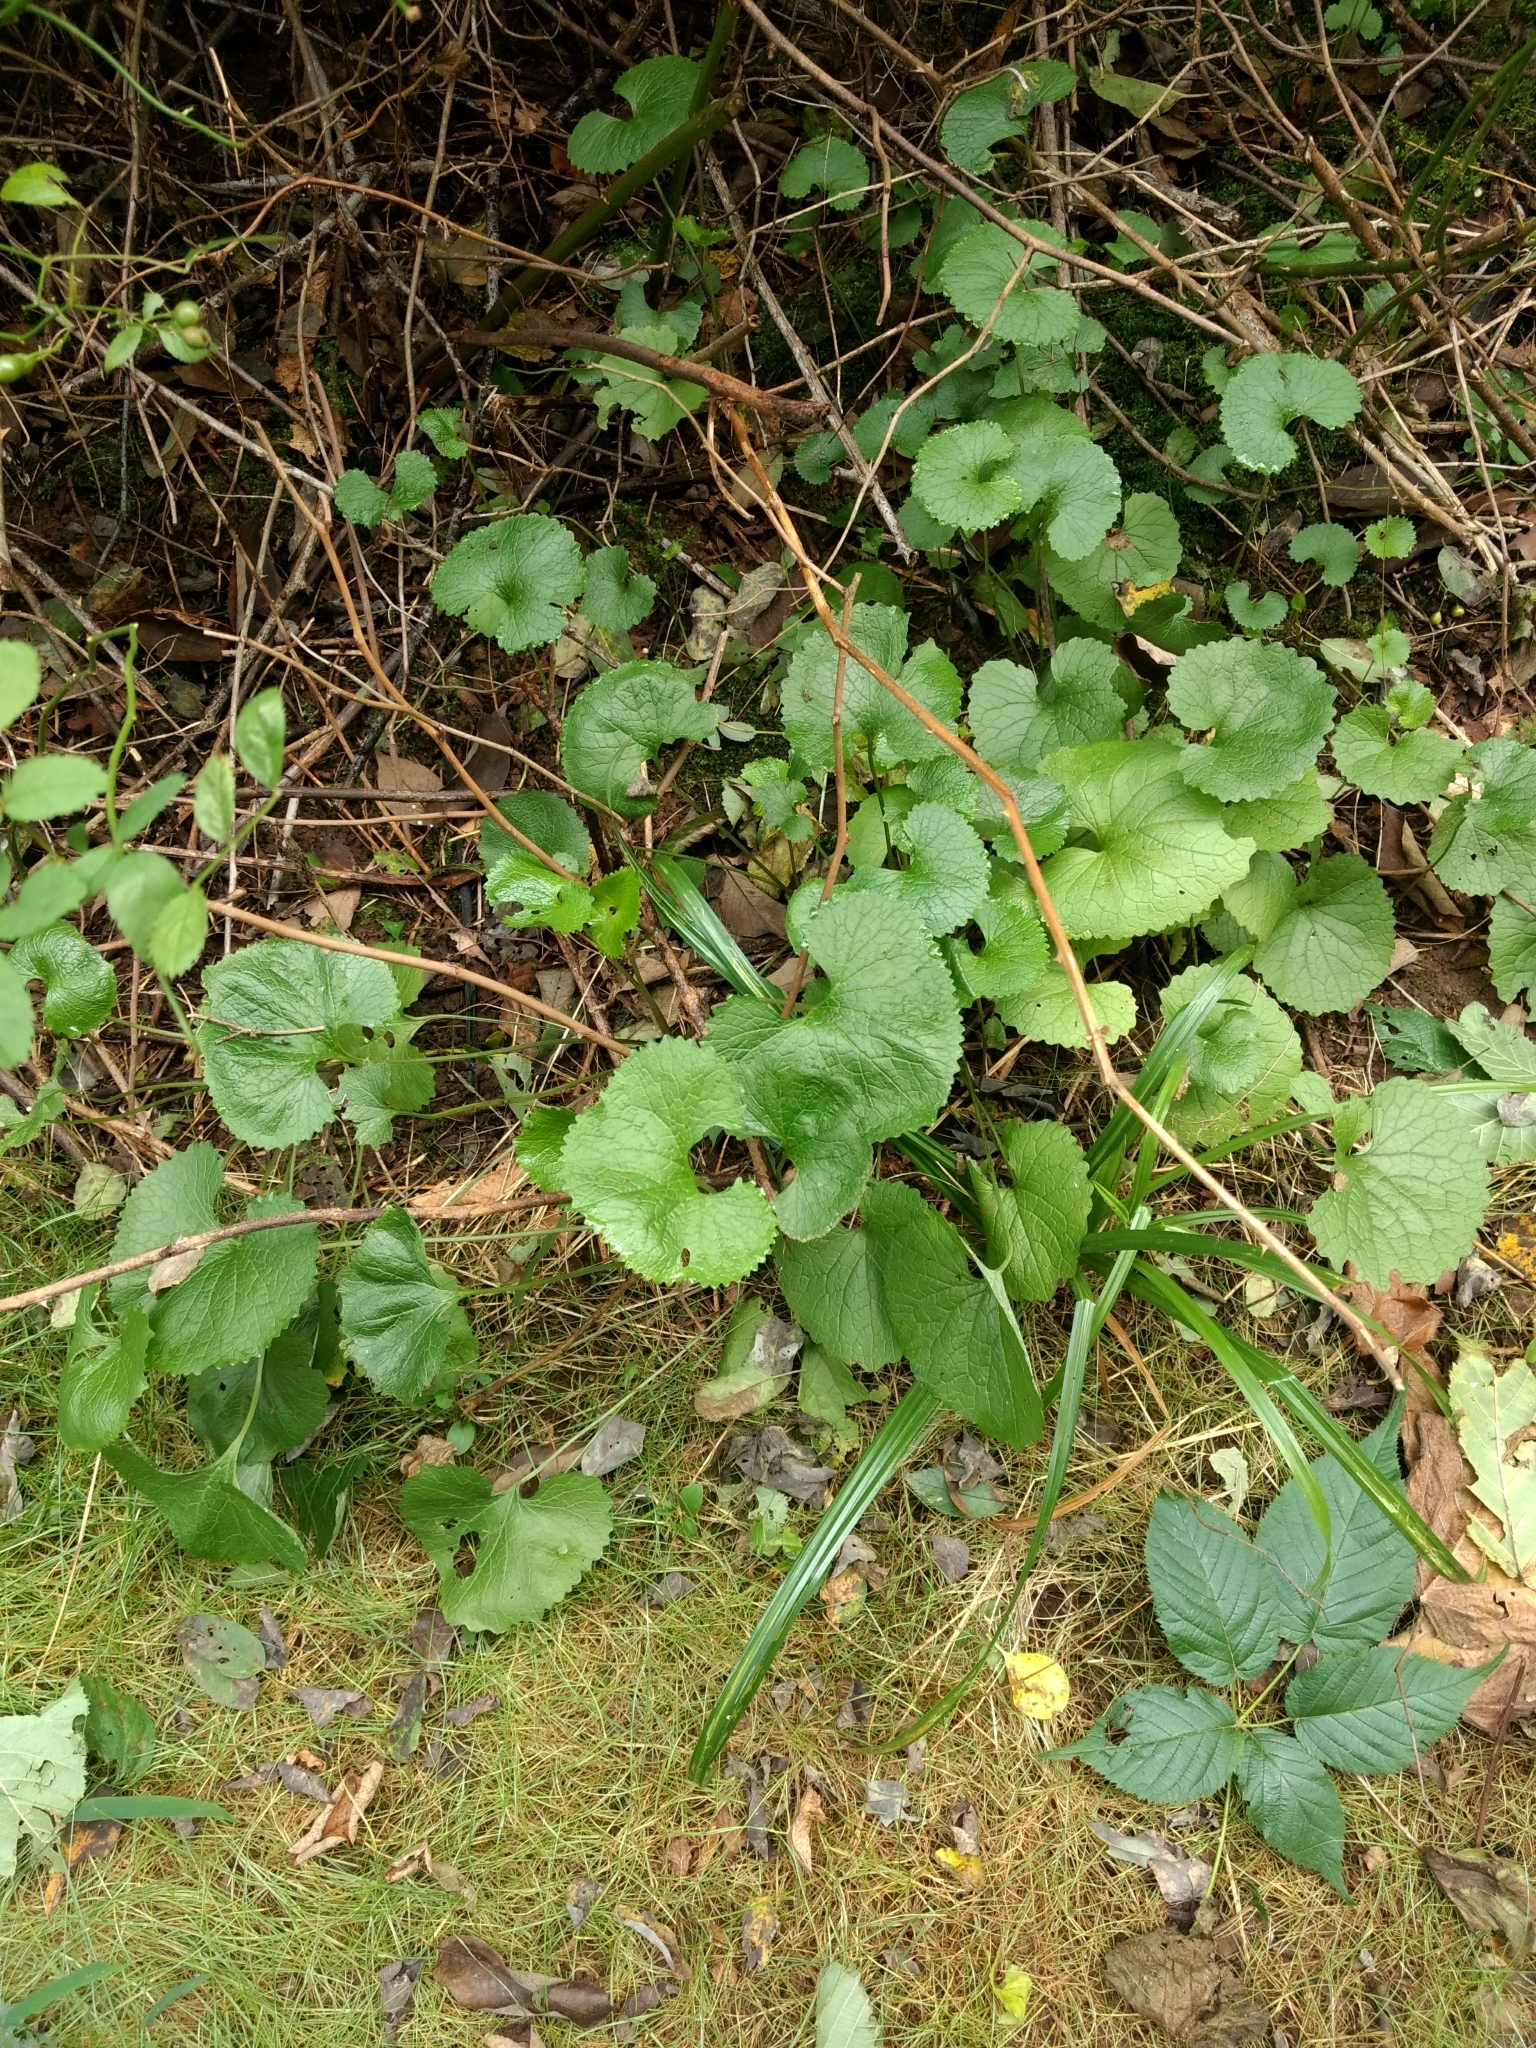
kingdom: Plantae
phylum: Tracheophyta
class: Magnoliopsida
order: Brassicales
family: Brassicaceae
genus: Alliaria
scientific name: Alliaria petiolata
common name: Garlic mustard
